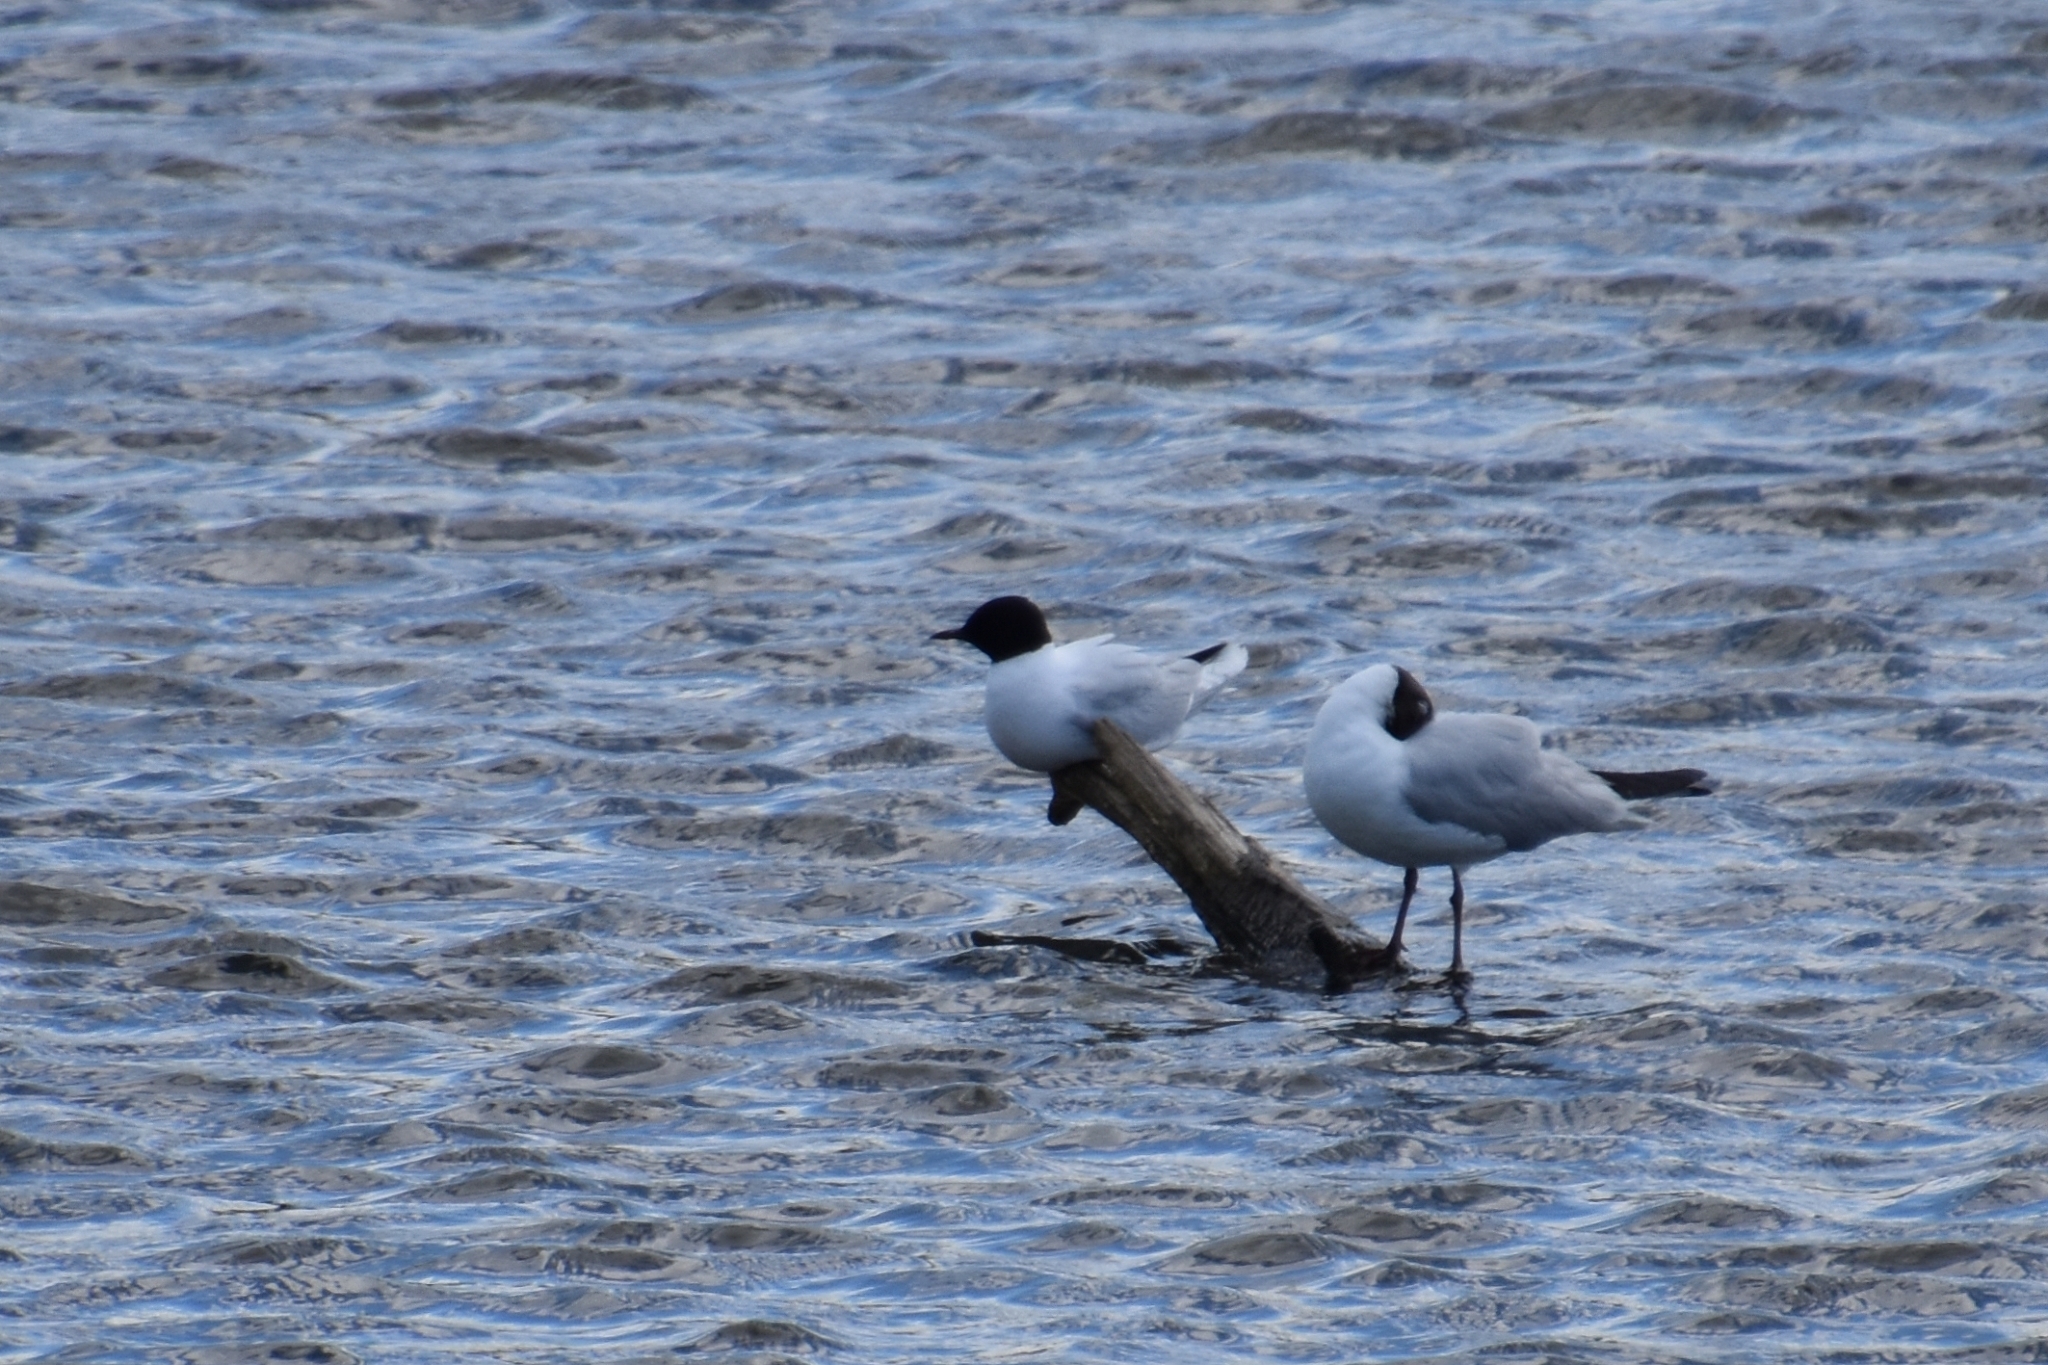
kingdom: Animalia
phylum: Chordata
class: Aves
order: Charadriiformes
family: Laridae
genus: Hydrocoloeus
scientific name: Hydrocoloeus minutus
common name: Little gull
